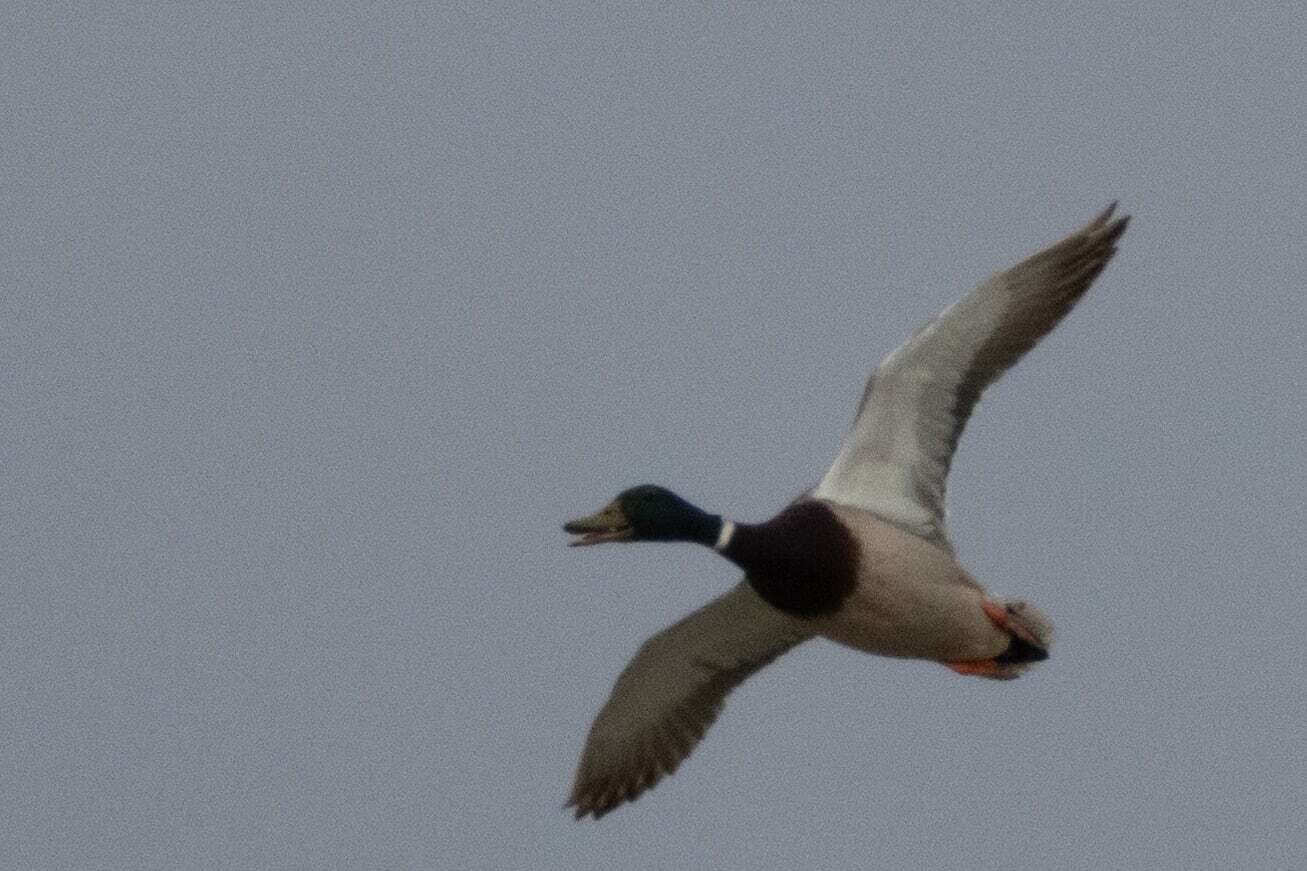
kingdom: Animalia
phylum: Chordata
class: Aves
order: Anseriformes
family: Anatidae
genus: Anas
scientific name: Anas platyrhynchos
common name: Mallard
